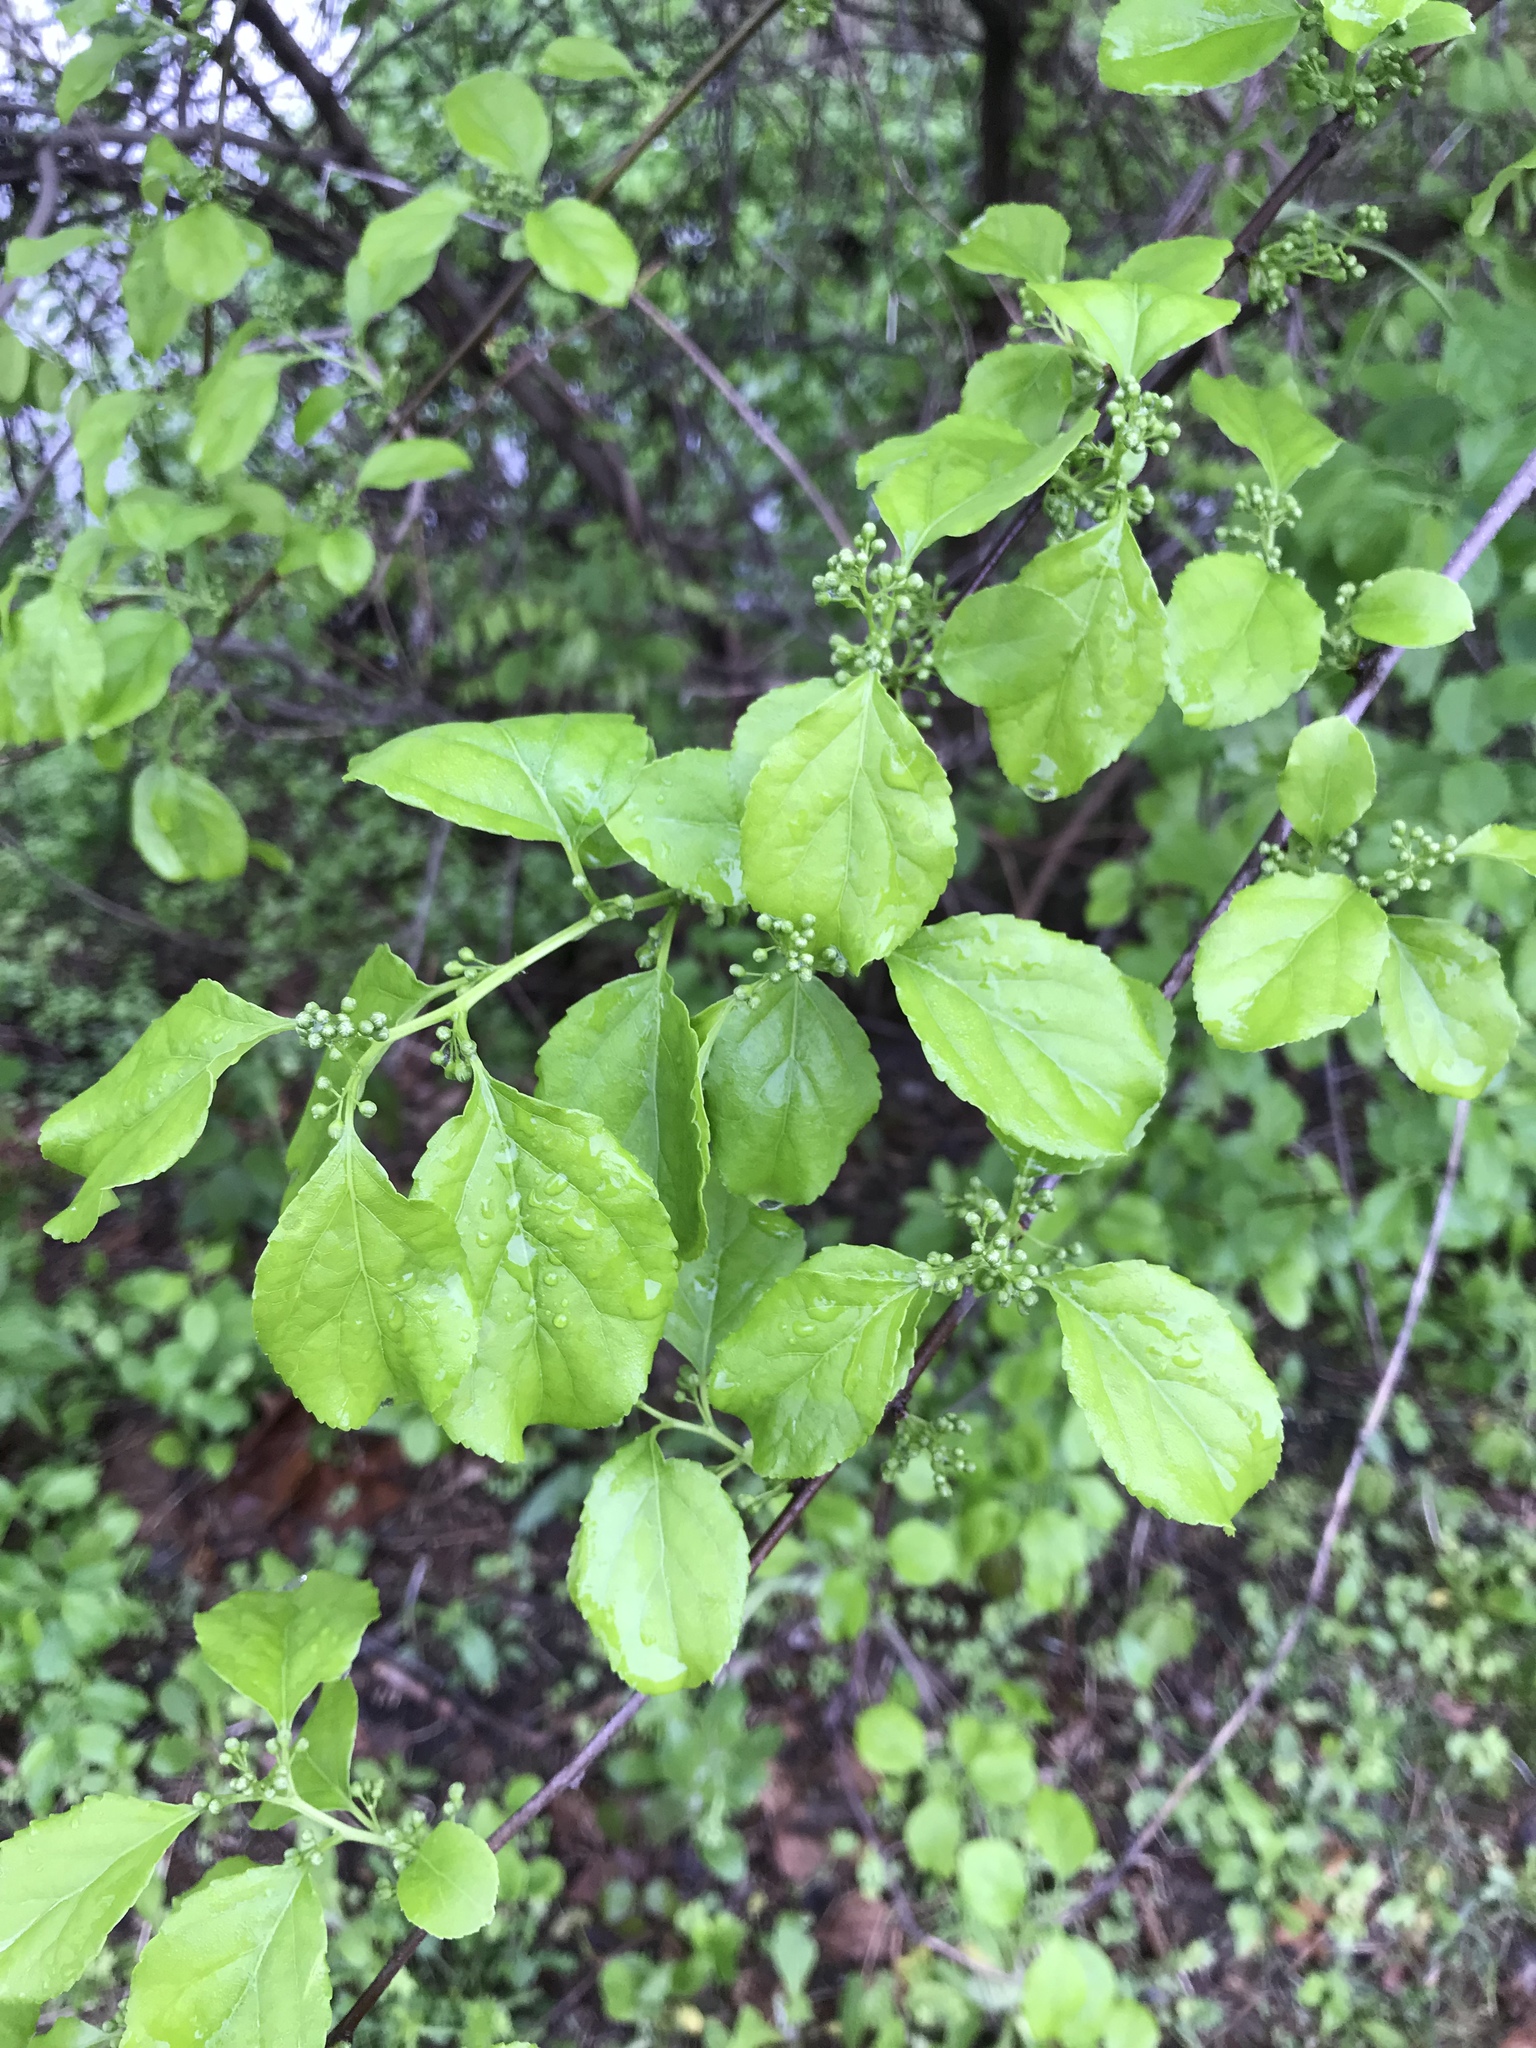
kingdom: Plantae
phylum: Tracheophyta
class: Magnoliopsida
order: Celastrales
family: Celastraceae
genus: Celastrus
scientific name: Celastrus orbiculatus
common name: Oriental bittersweet
